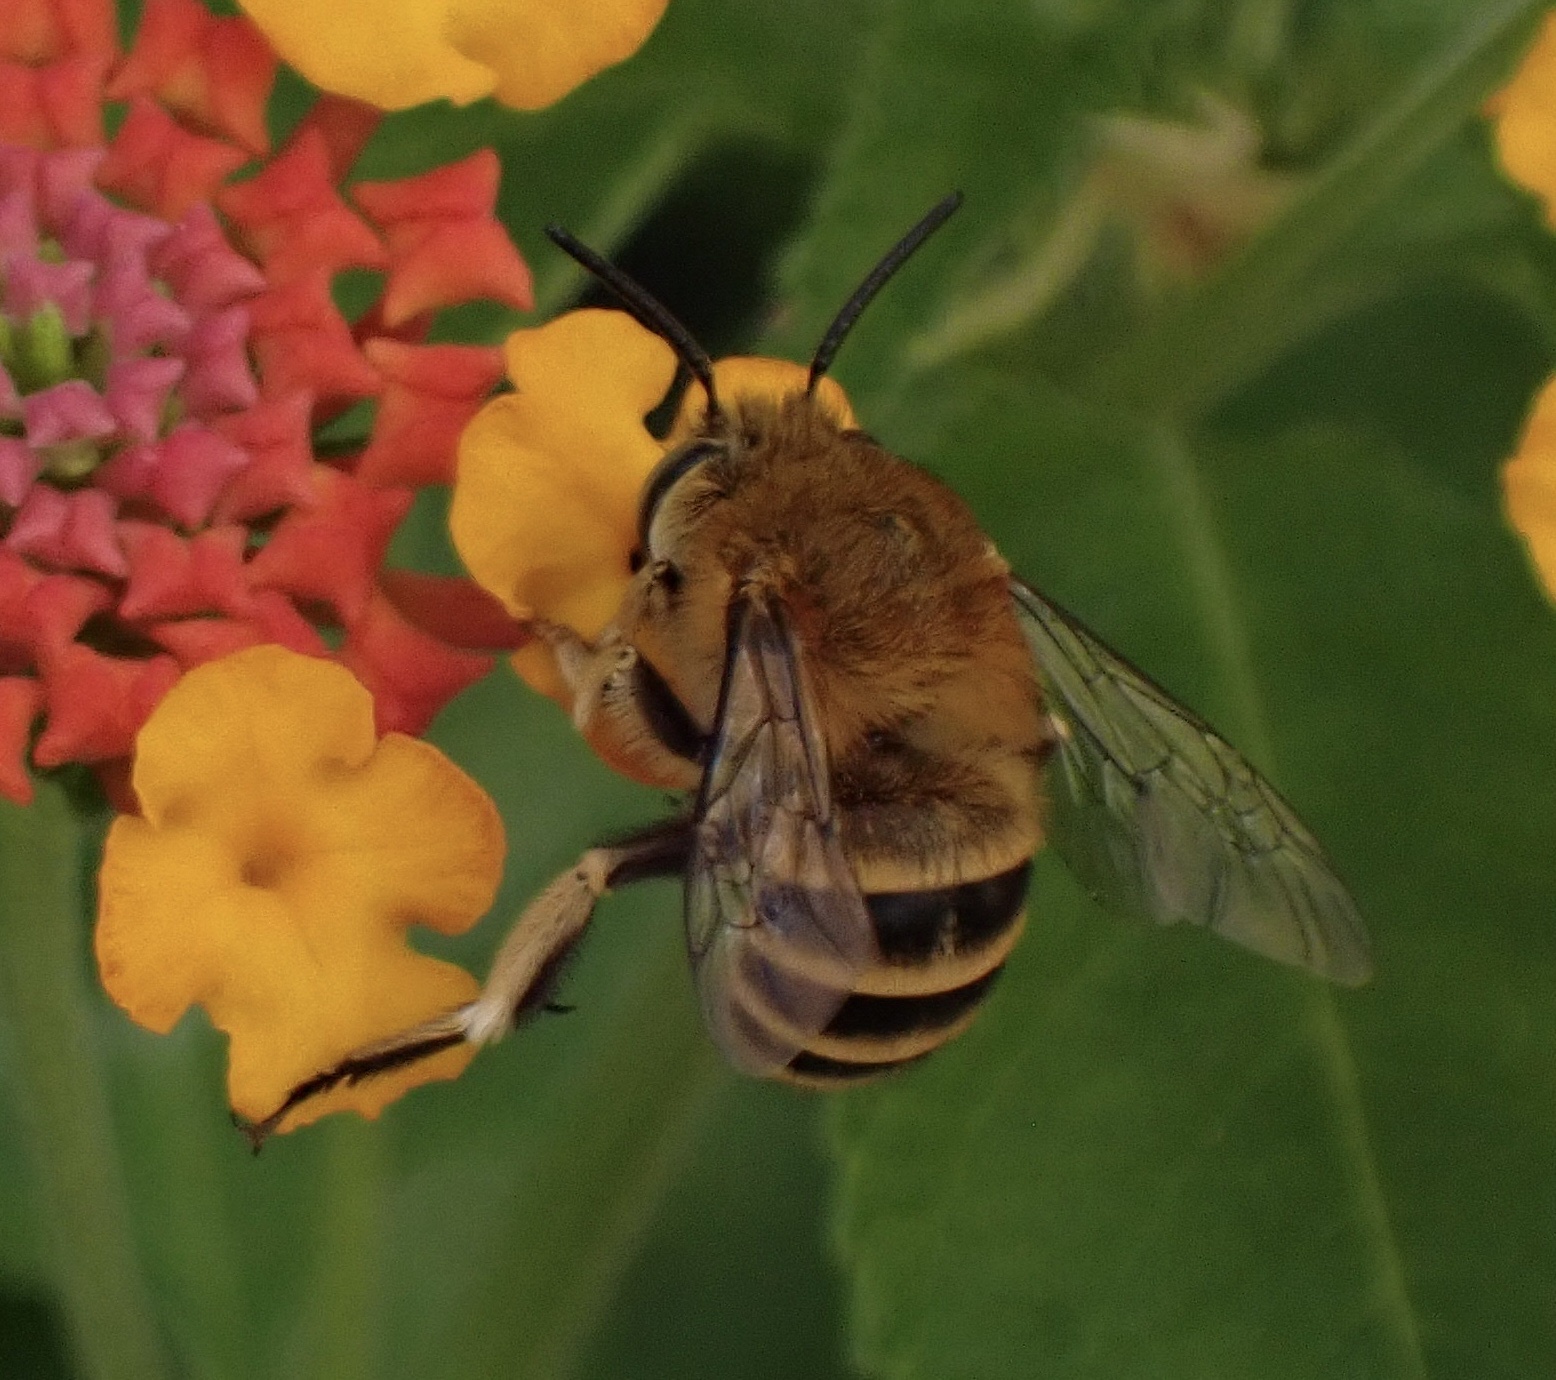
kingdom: Animalia
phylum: Arthropoda
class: Insecta
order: Hymenoptera
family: Apidae
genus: Amegilla
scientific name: Amegilla garrula
